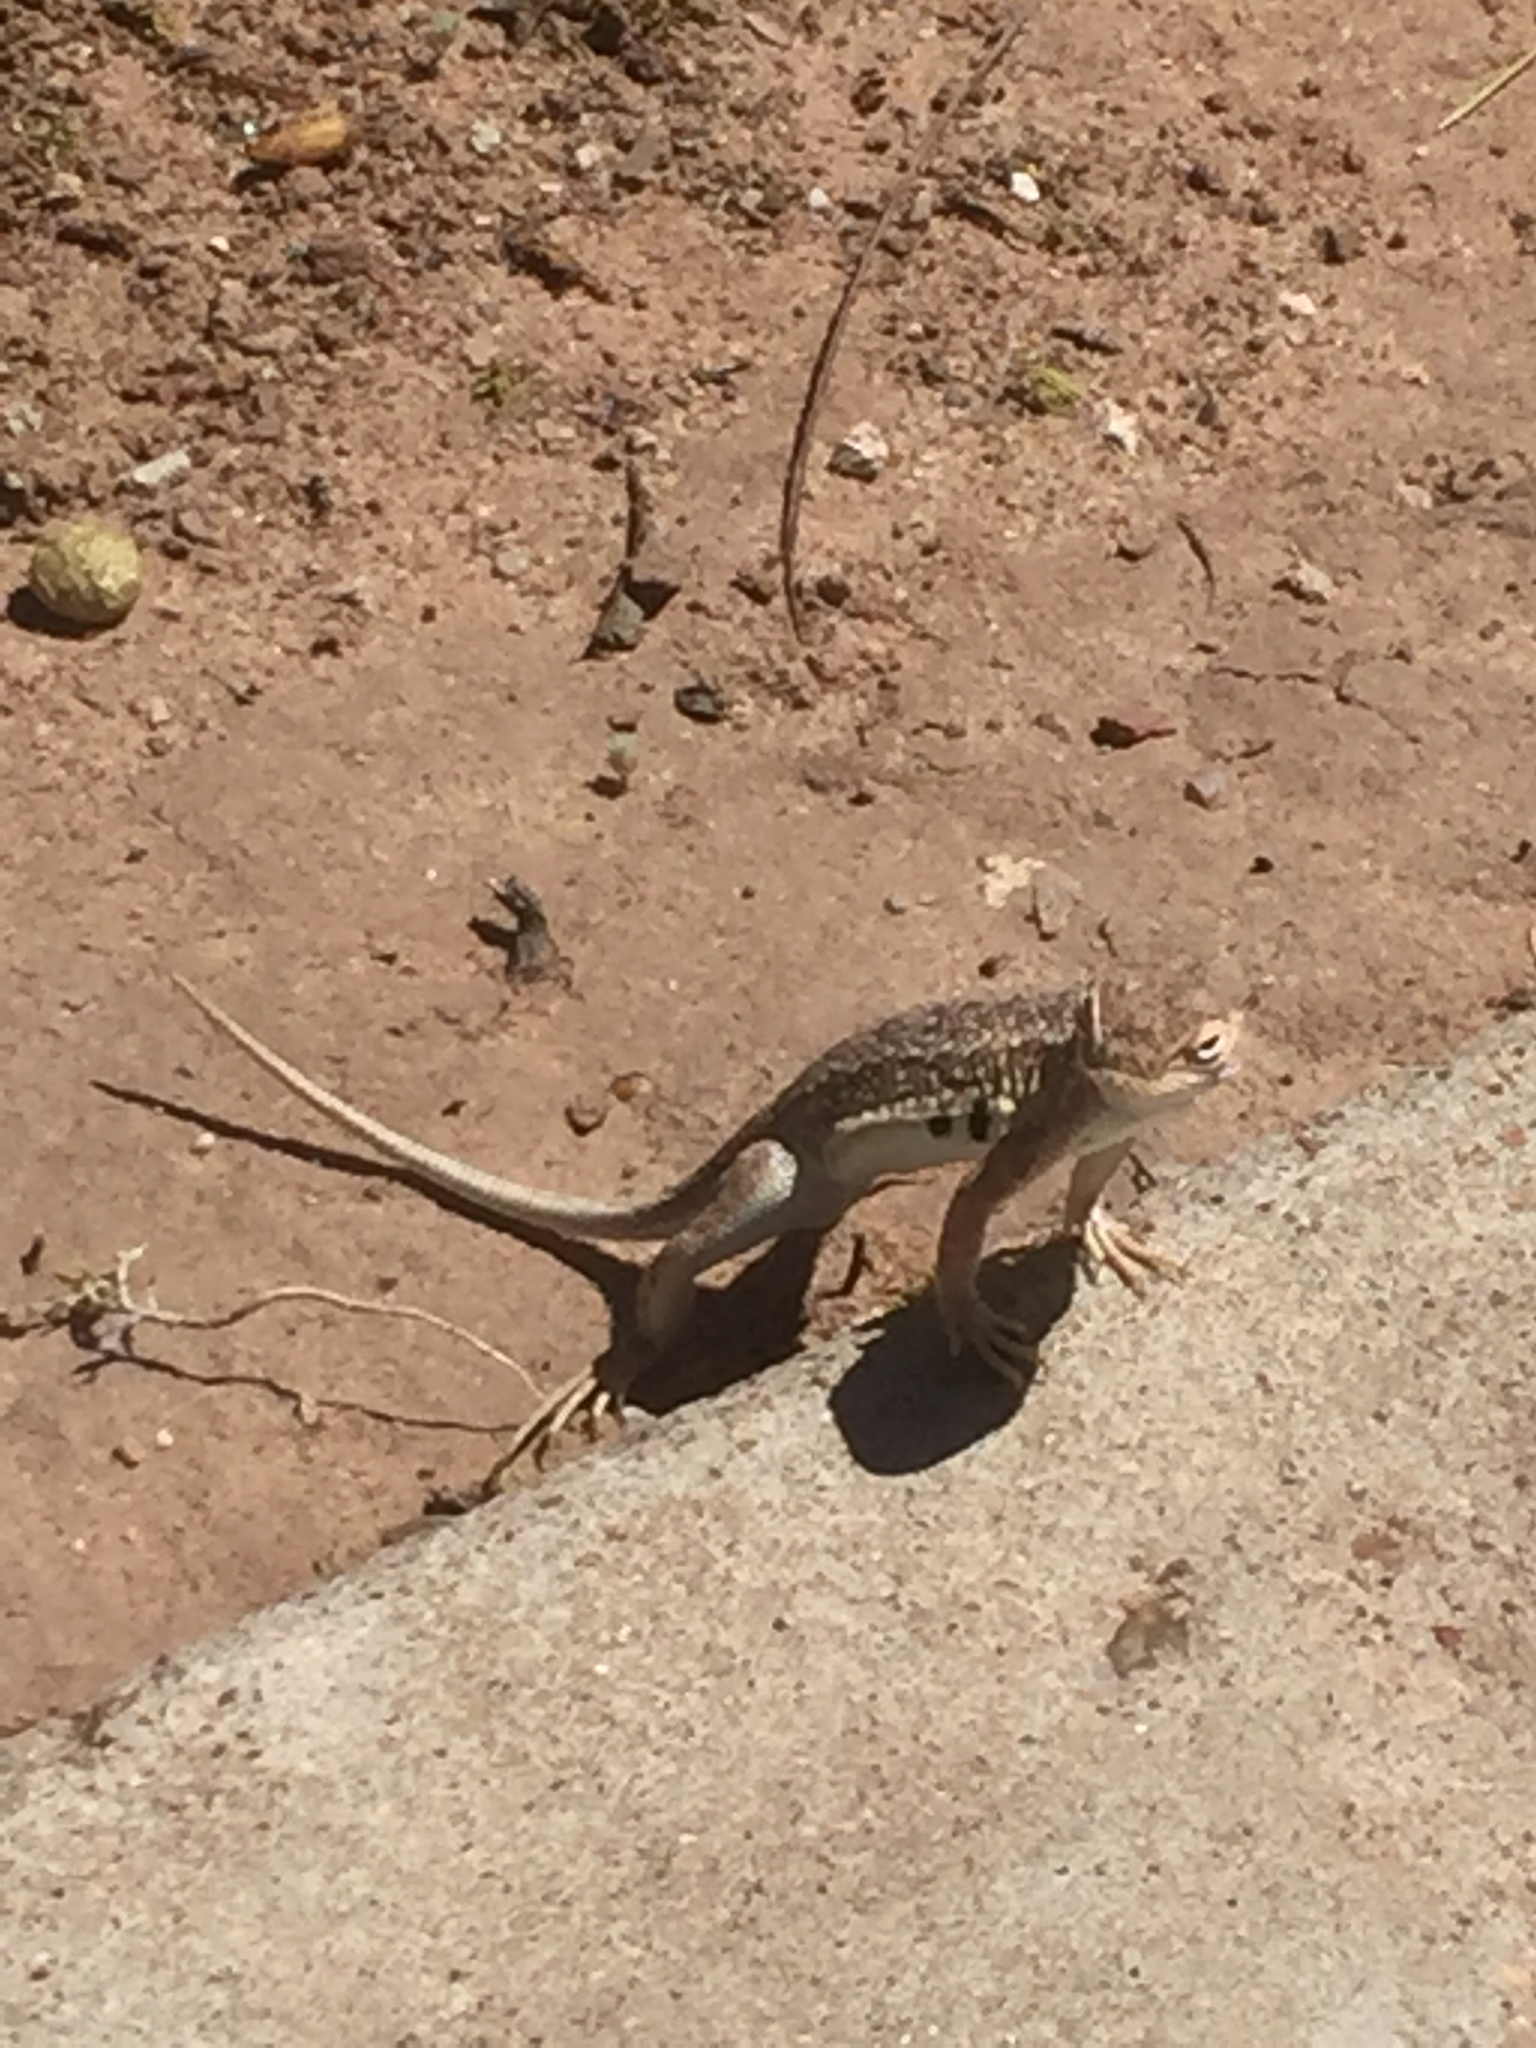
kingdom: Animalia
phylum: Chordata
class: Squamata
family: Phrynosomatidae
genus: Holbrookia
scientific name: Holbrookia maculata
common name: Lesser earless lizard
